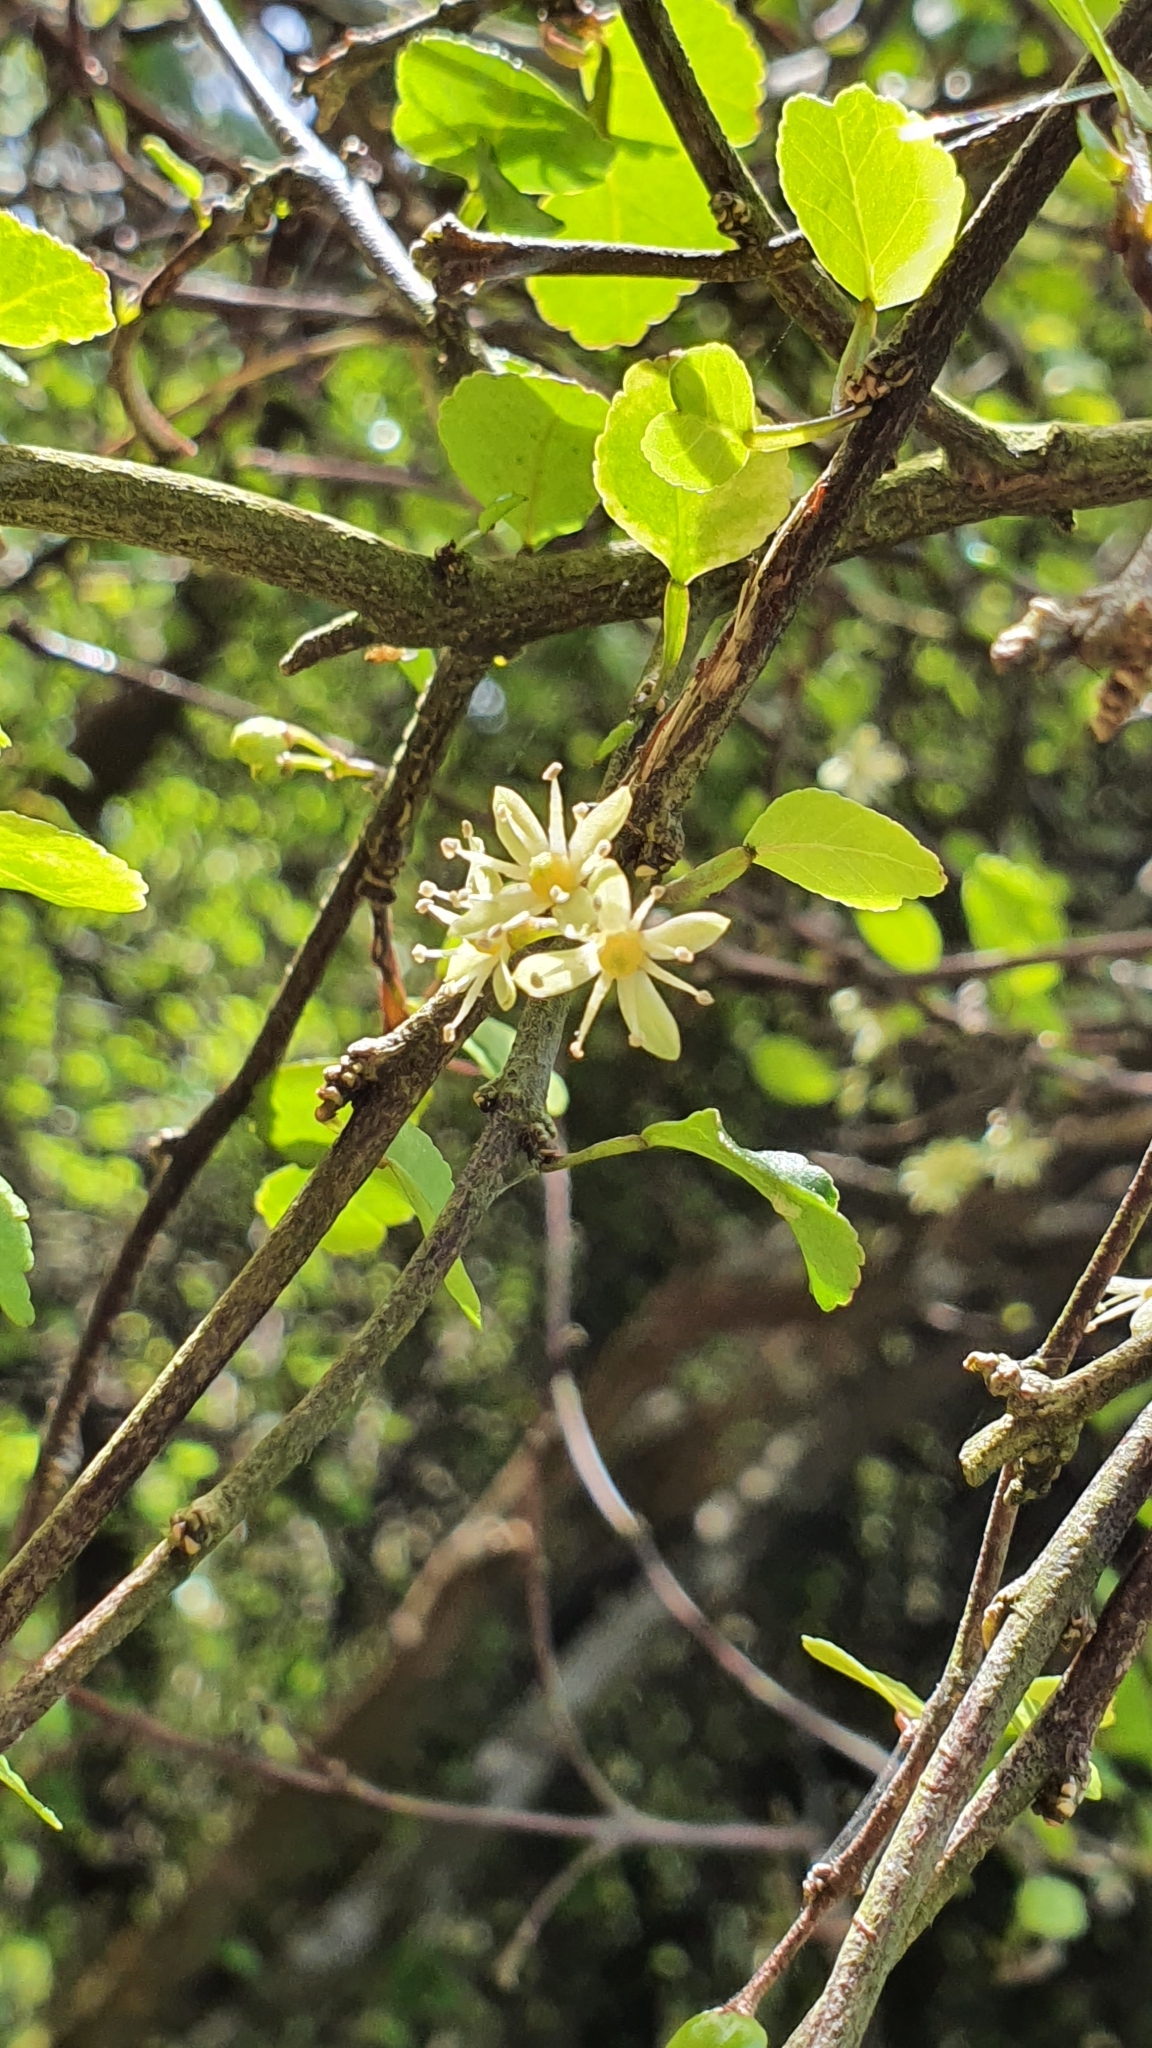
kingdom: Plantae
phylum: Tracheophyta
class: Magnoliopsida
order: Sapindales
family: Rutaceae
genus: Melicope
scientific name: Melicope simplex
